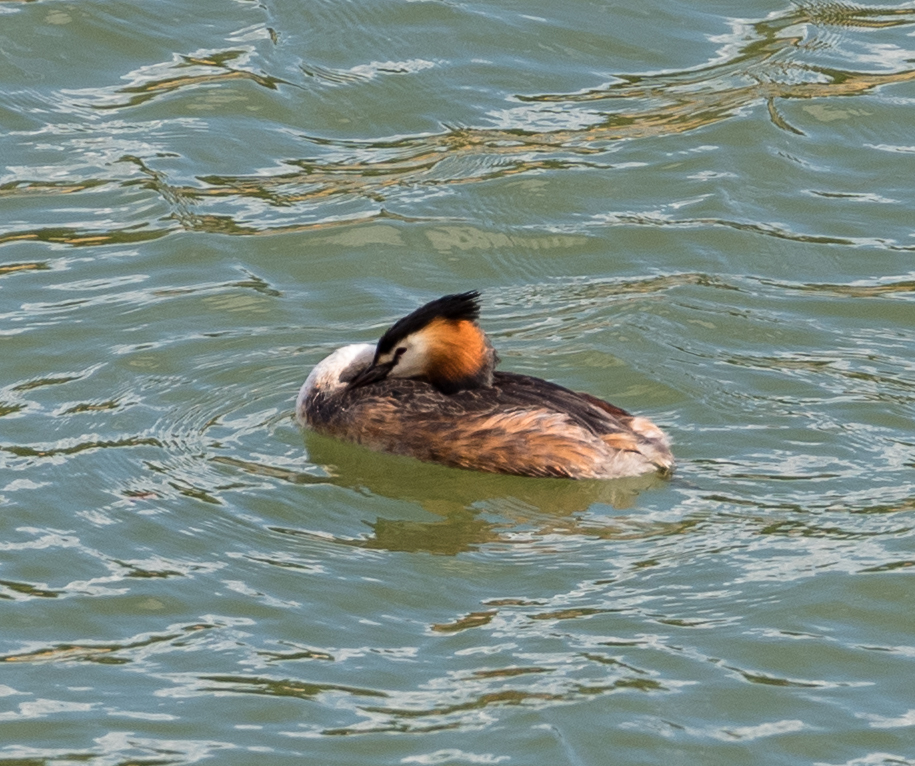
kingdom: Animalia
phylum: Chordata
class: Aves
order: Podicipediformes
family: Podicipedidae
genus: Podiceps
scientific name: Podiceps cristatus
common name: Great crested grebe
